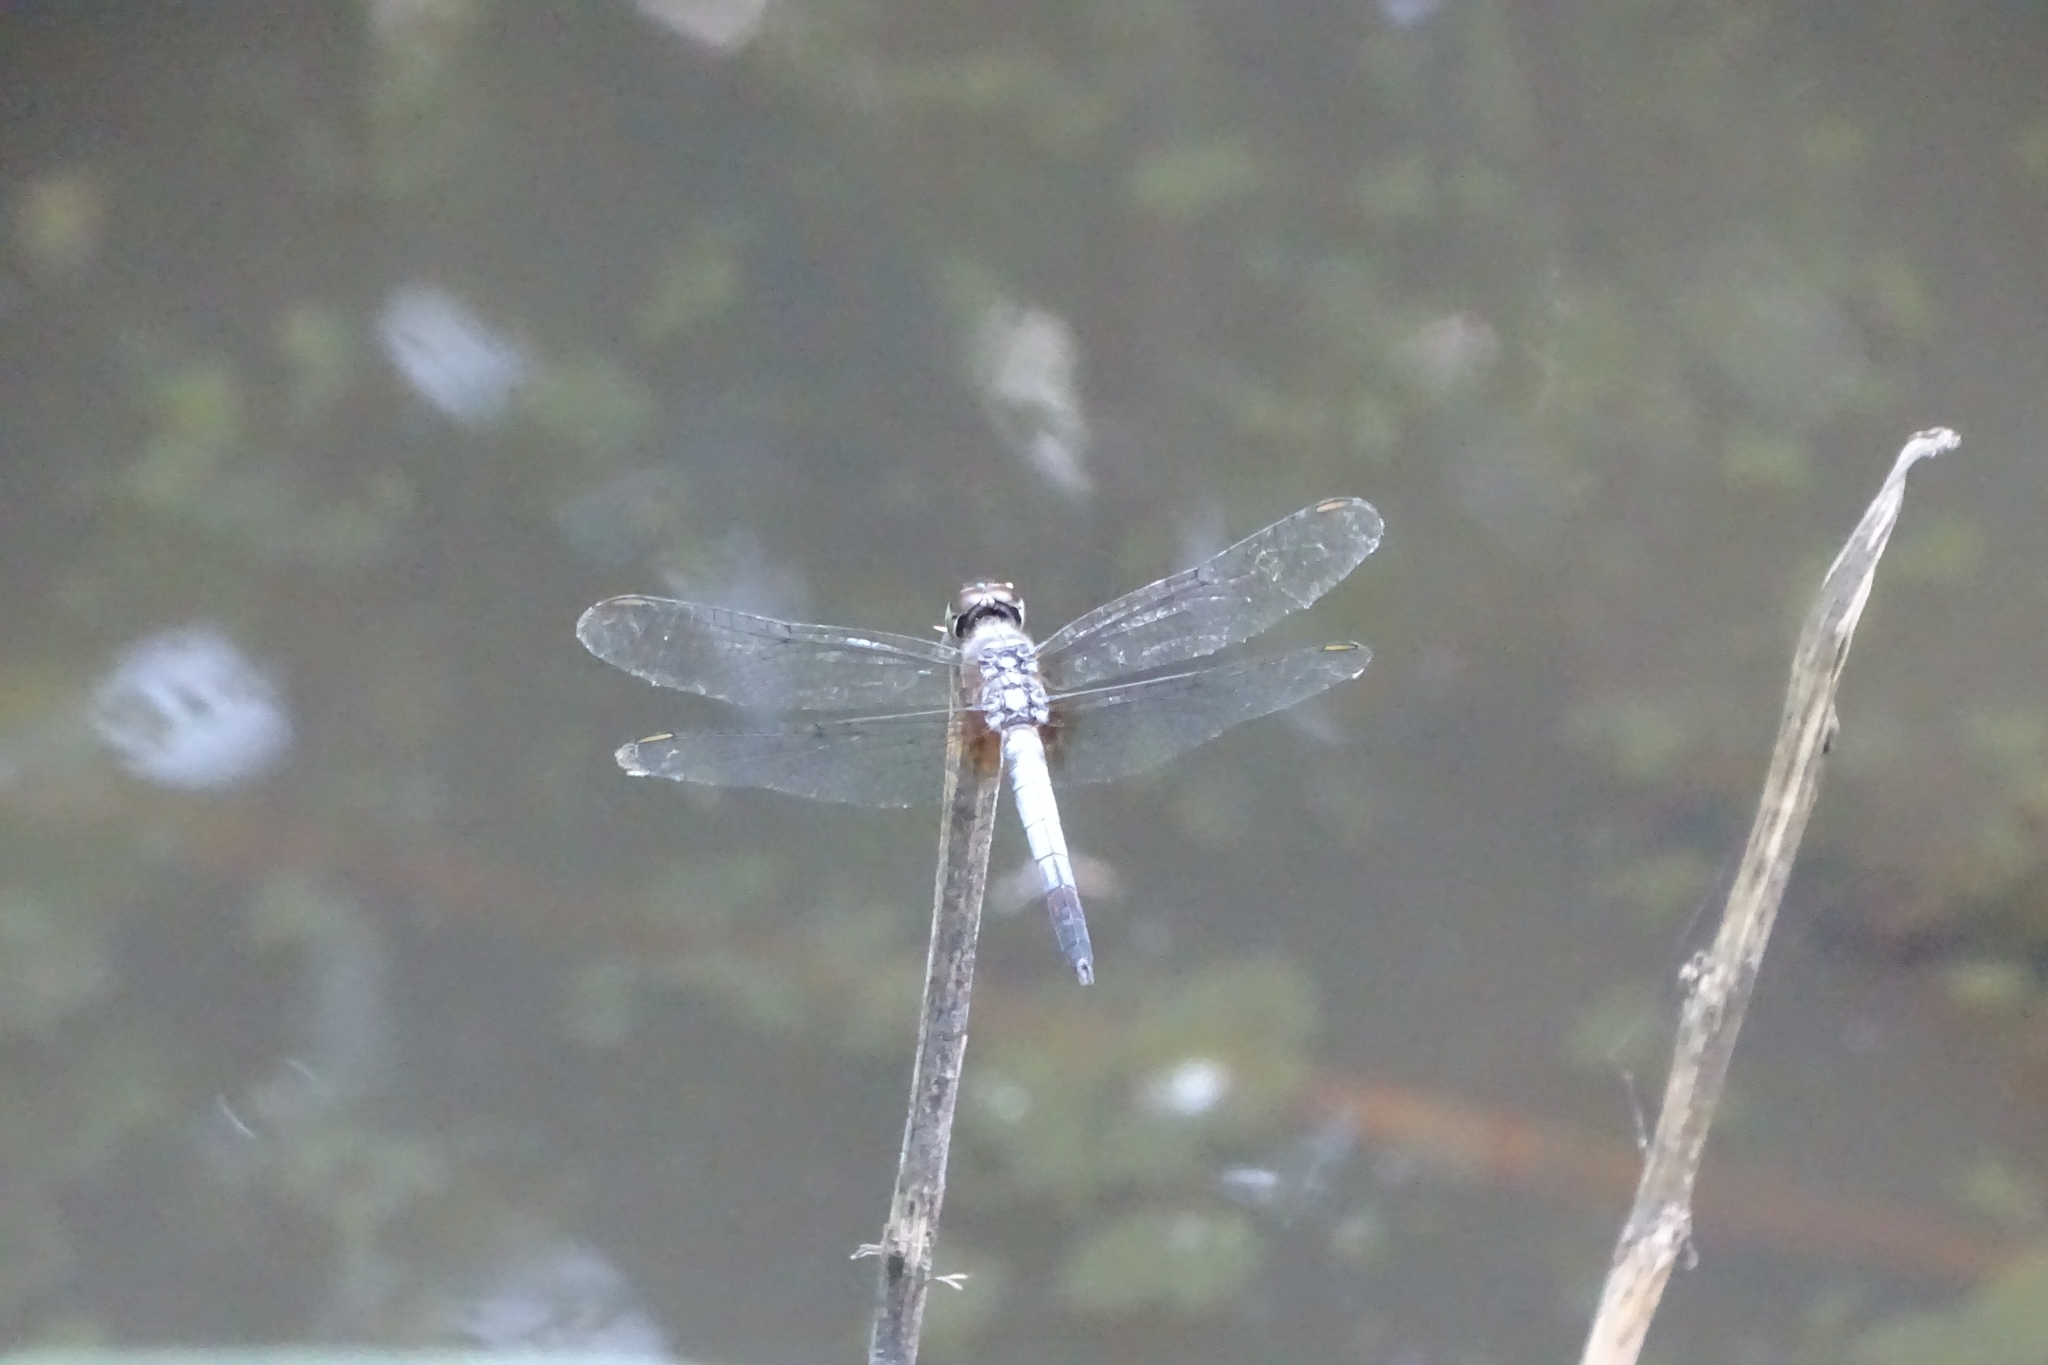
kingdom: Animalia
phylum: Arthropoda
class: Insecta
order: Odonata
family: Libellulidae
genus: Brachydiplax
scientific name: Brachydiplax chalybea
